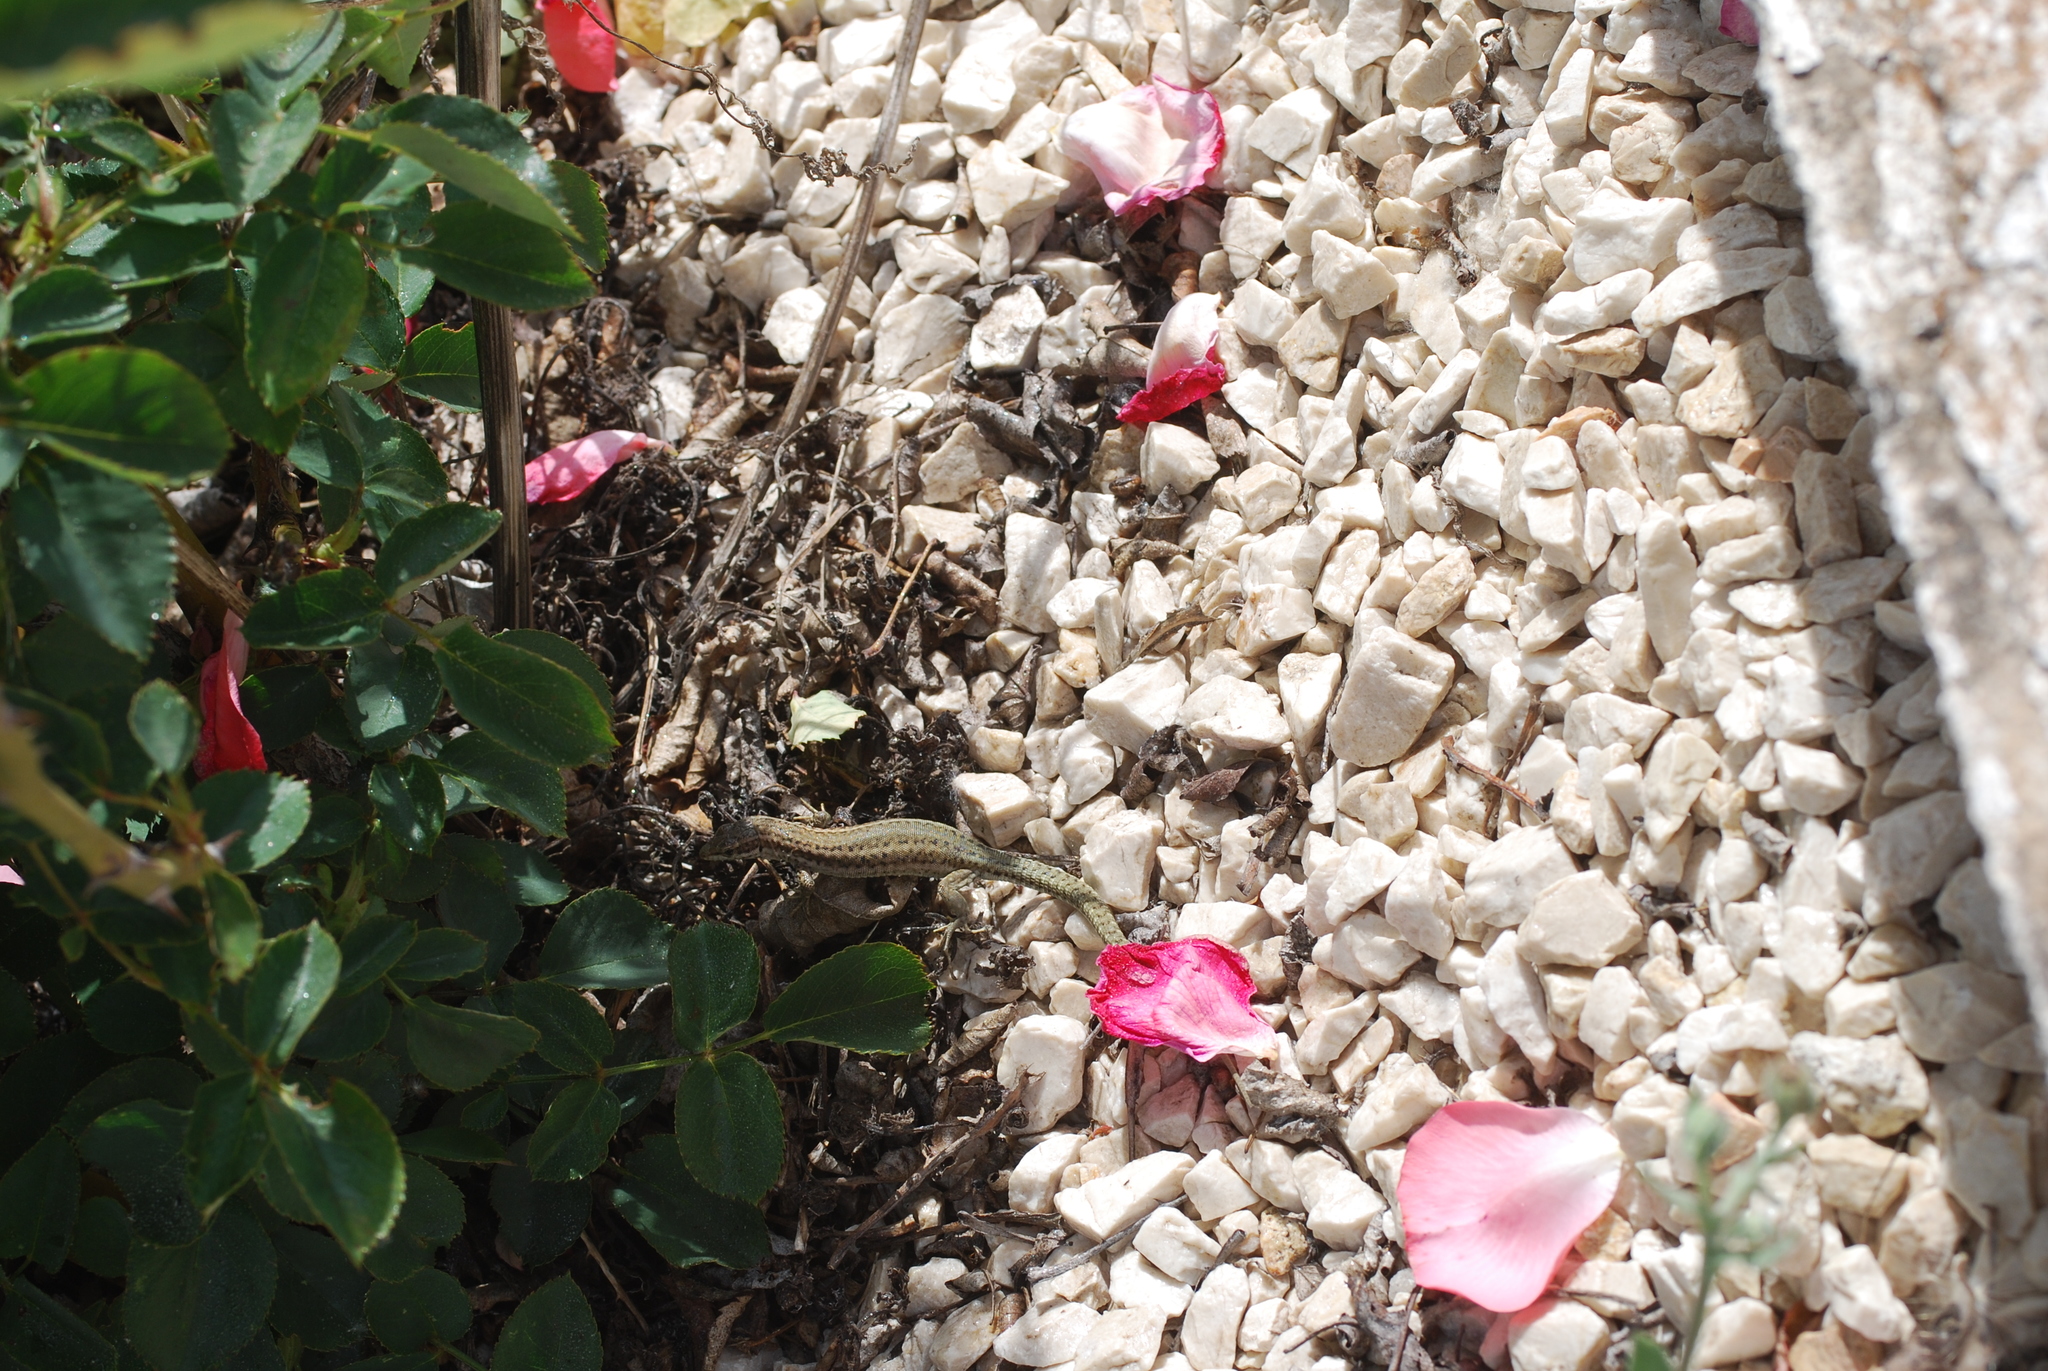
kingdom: Animalia
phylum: Chordata
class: Squamata
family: Lacertidae
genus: Podarcis
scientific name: Podarcis vaucheri
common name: Vaucher's wall lizard
